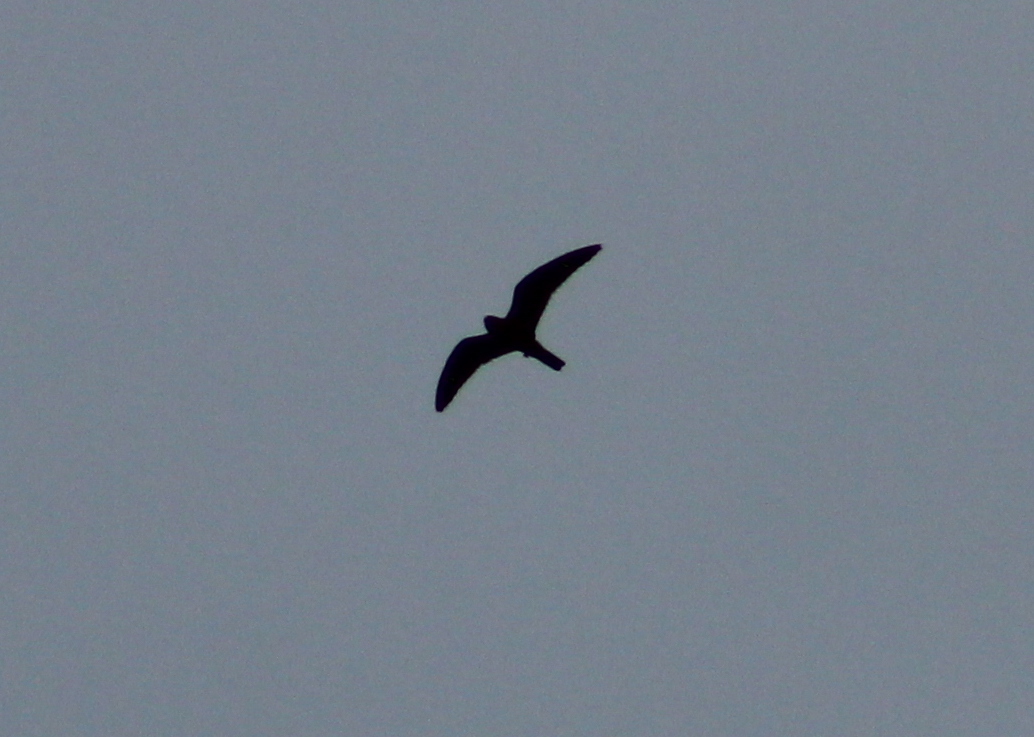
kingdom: Animalia
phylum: Chordata
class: Aves
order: Caprimulgiformes
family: Caprimulgidae
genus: Chordeiles
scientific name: Chordeiles minor
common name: Common nighthawk
